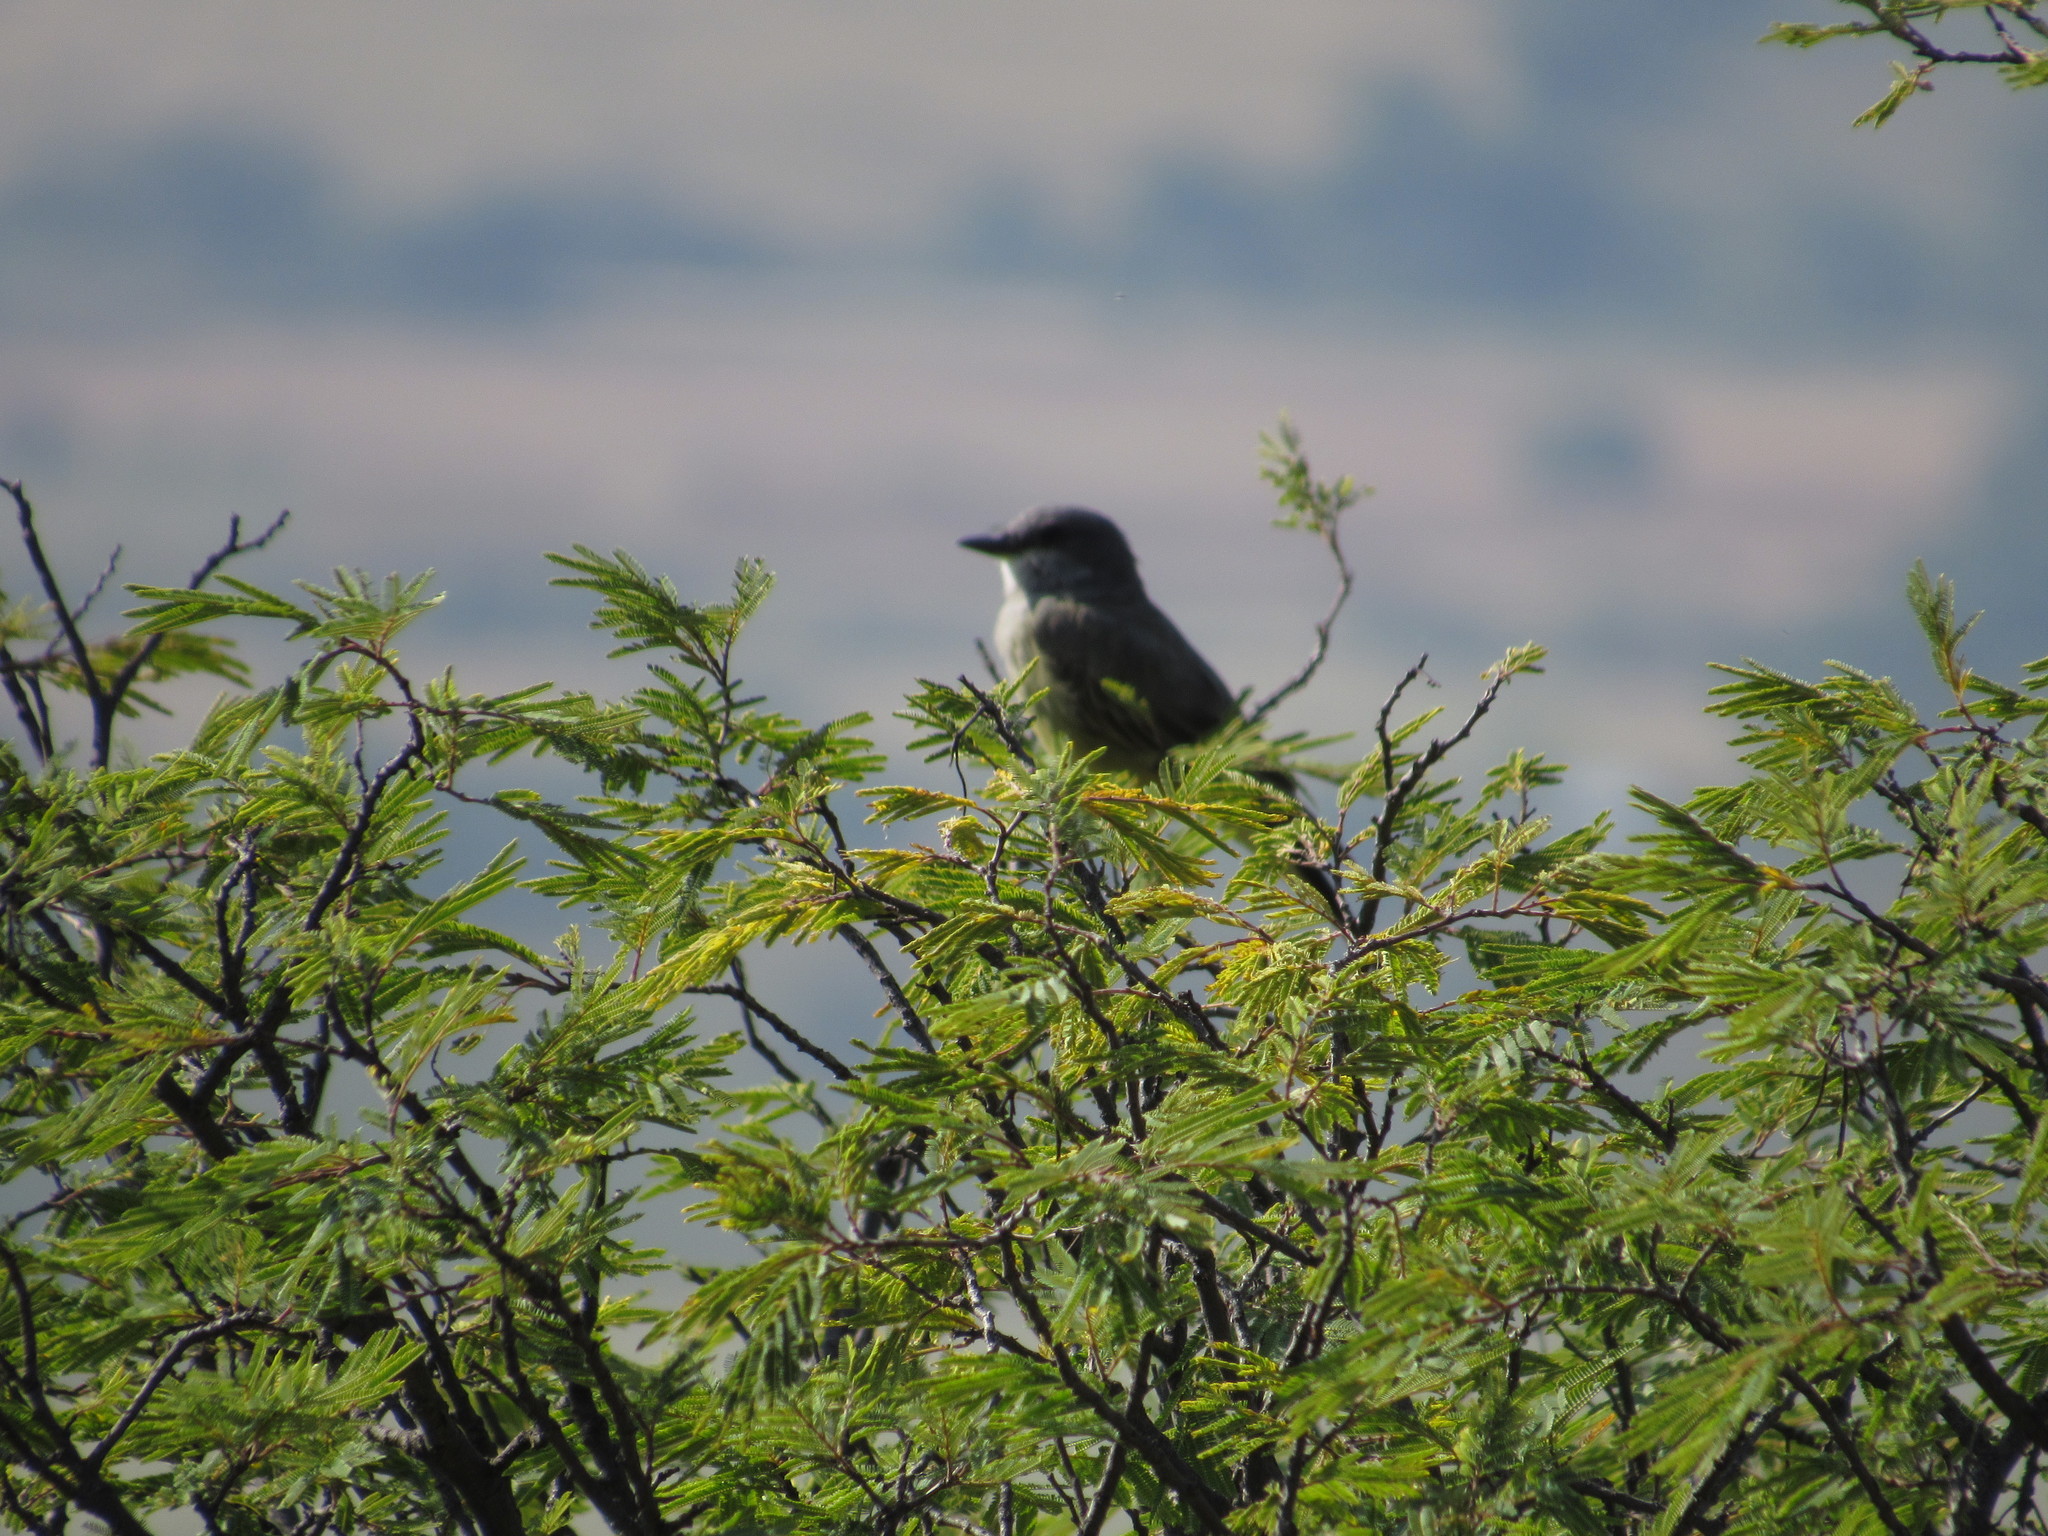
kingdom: Animalia
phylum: Chordata
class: Aves
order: Passeriformes
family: Tyrannidae
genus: Tyrannus
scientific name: Tyrannus vociferans
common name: Cassin's kingbird
